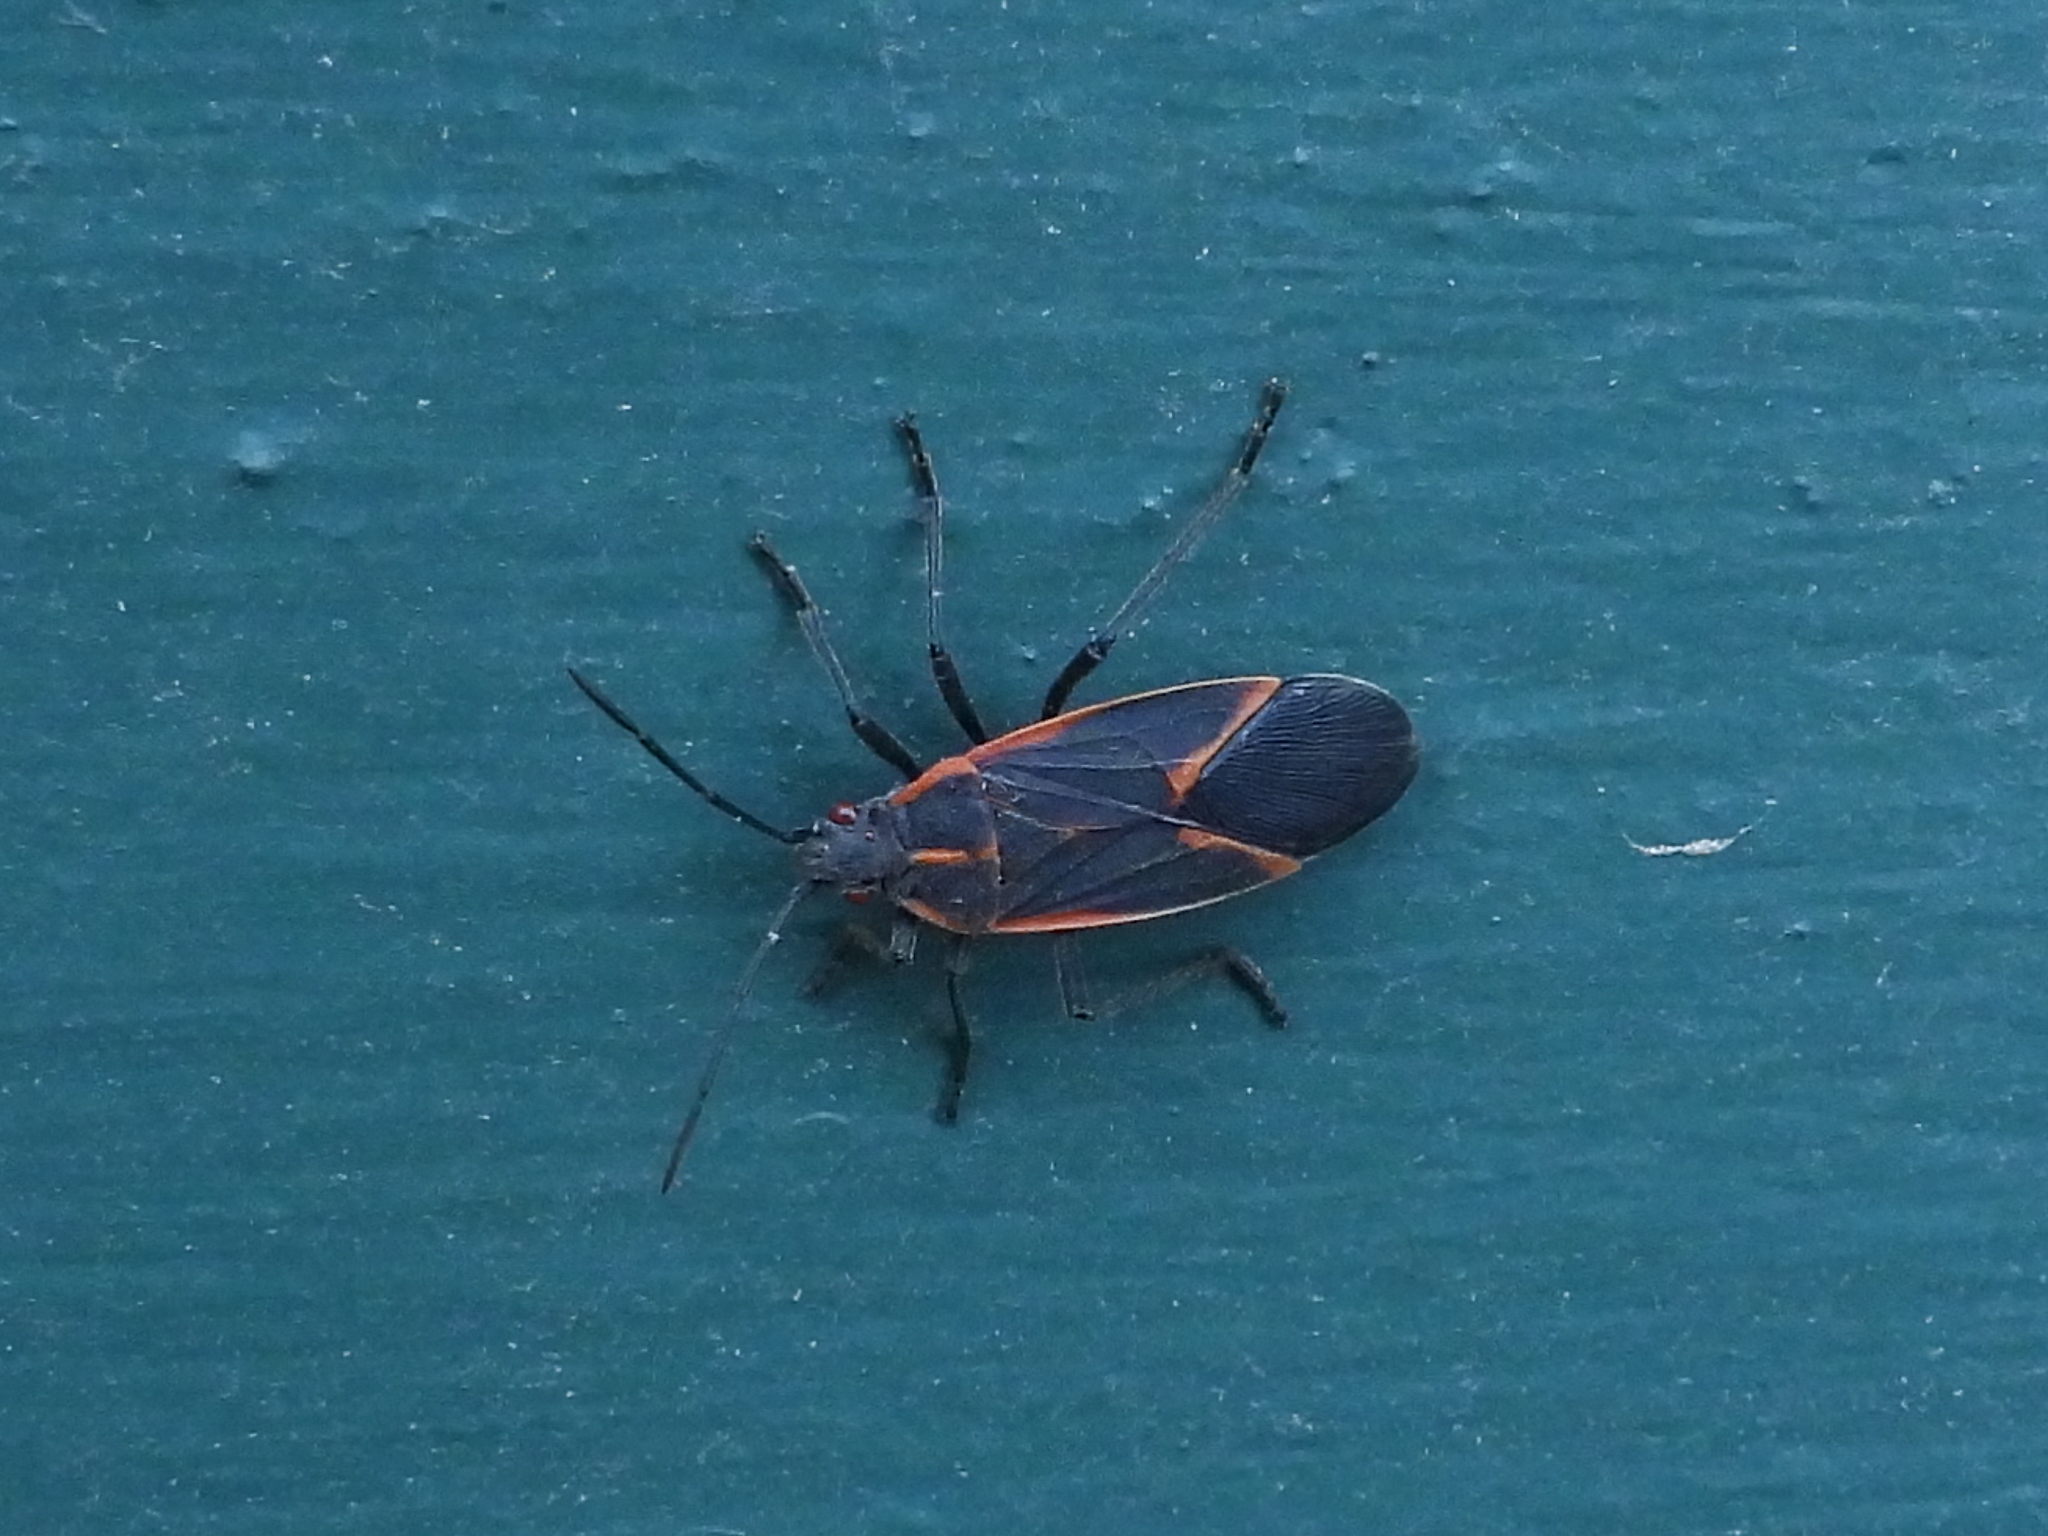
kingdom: Animalia
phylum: Arthropoda
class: Insecta
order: Hemiptera
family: Rhopalidae
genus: Boisea
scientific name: Boisea trivittata
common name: Boxelder bug
